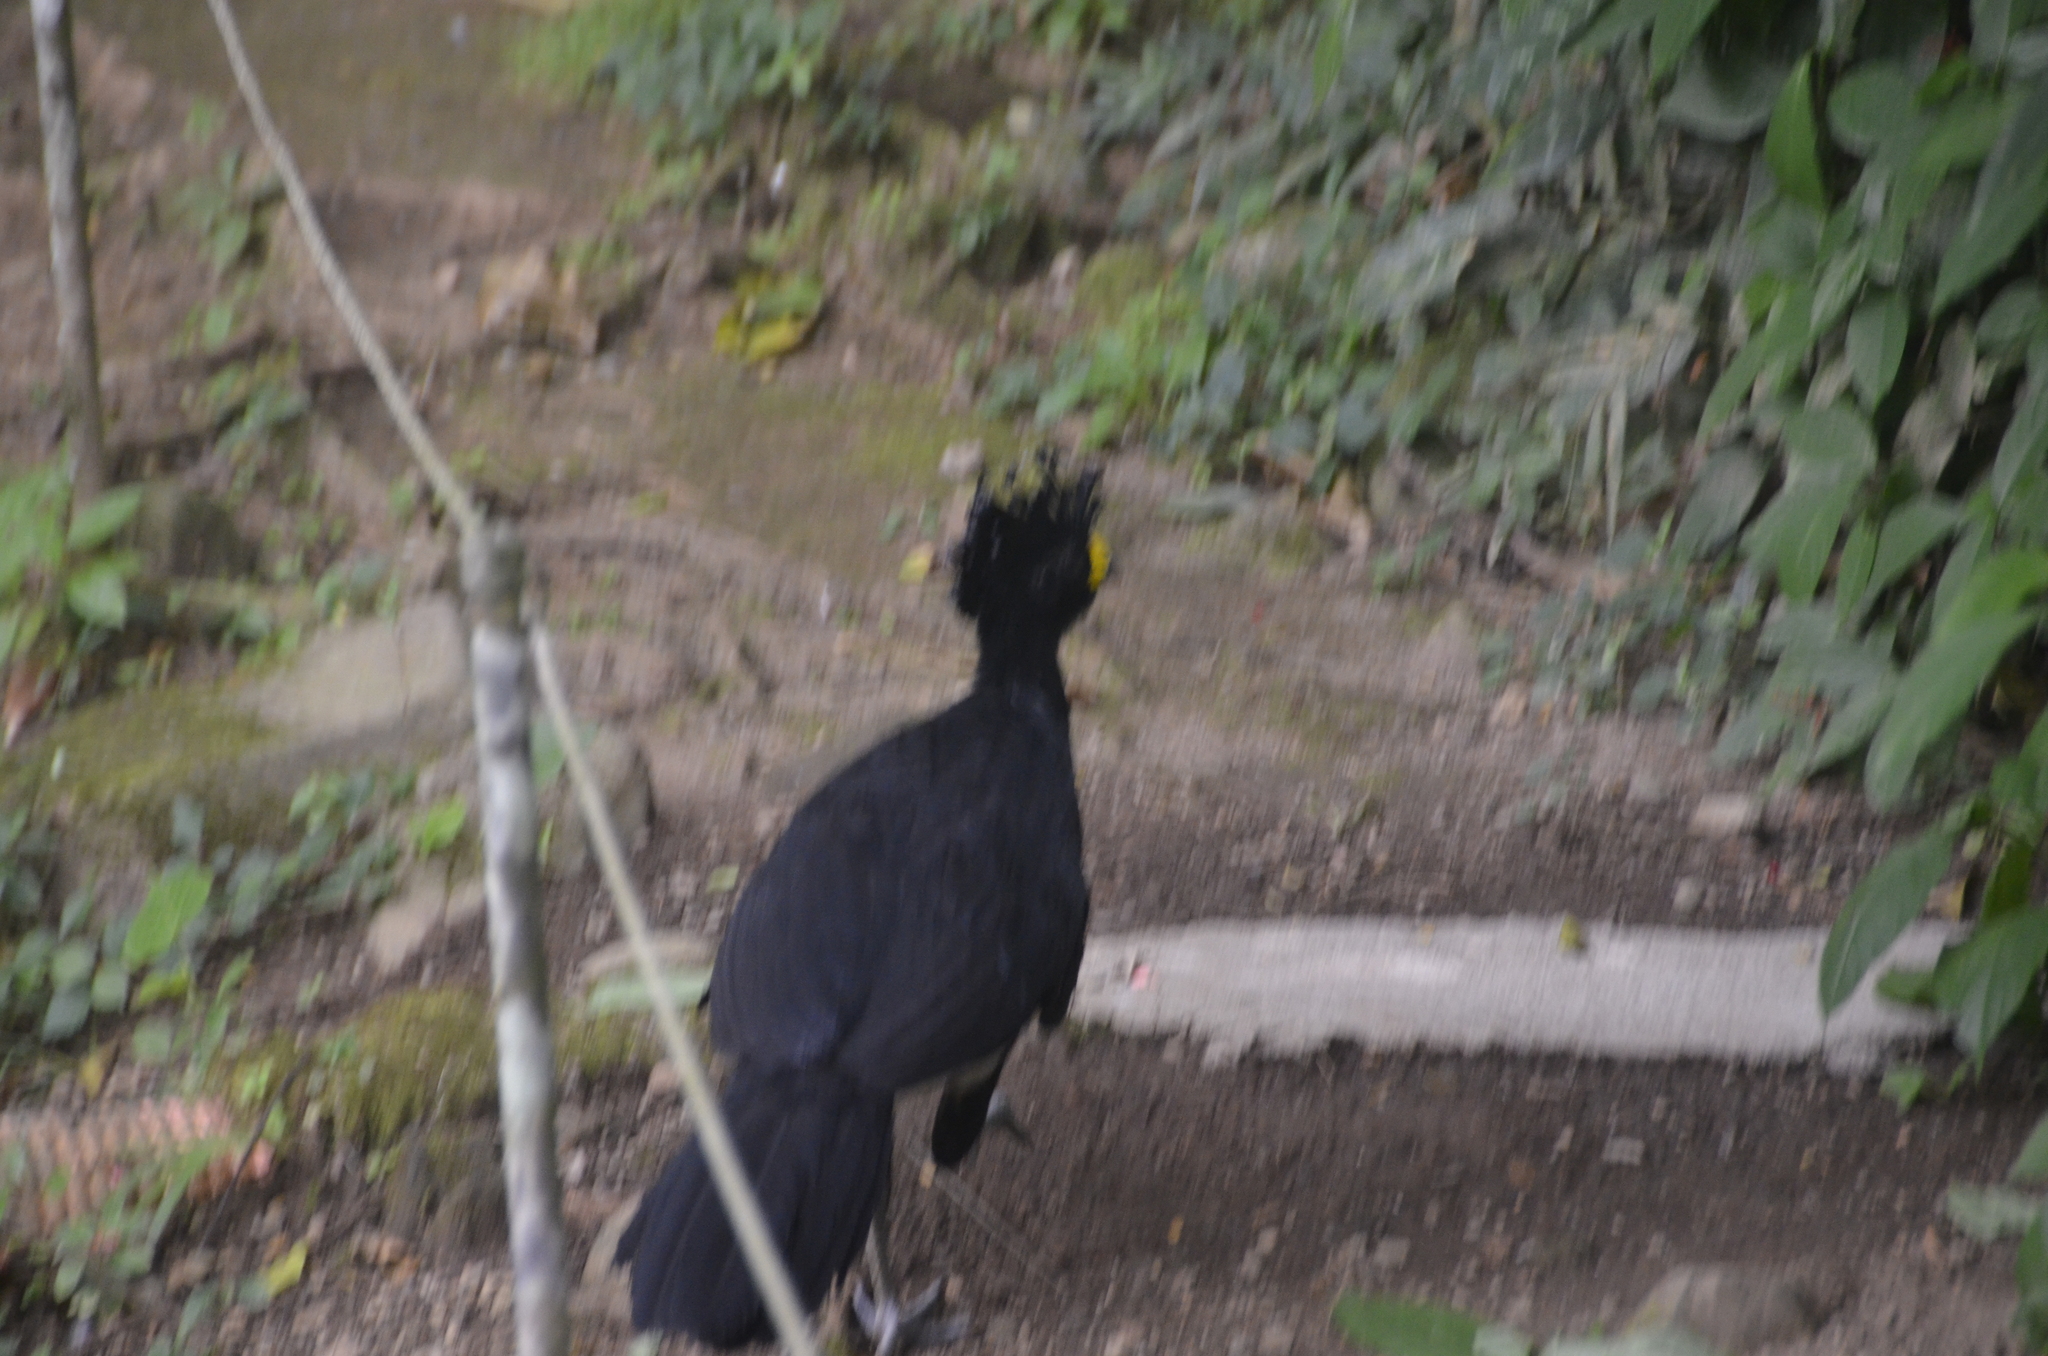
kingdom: Animalia
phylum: Chordata
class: Aves
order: Galliformes
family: Cracidae
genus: Crax
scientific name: Crax rubra
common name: Great curassow
